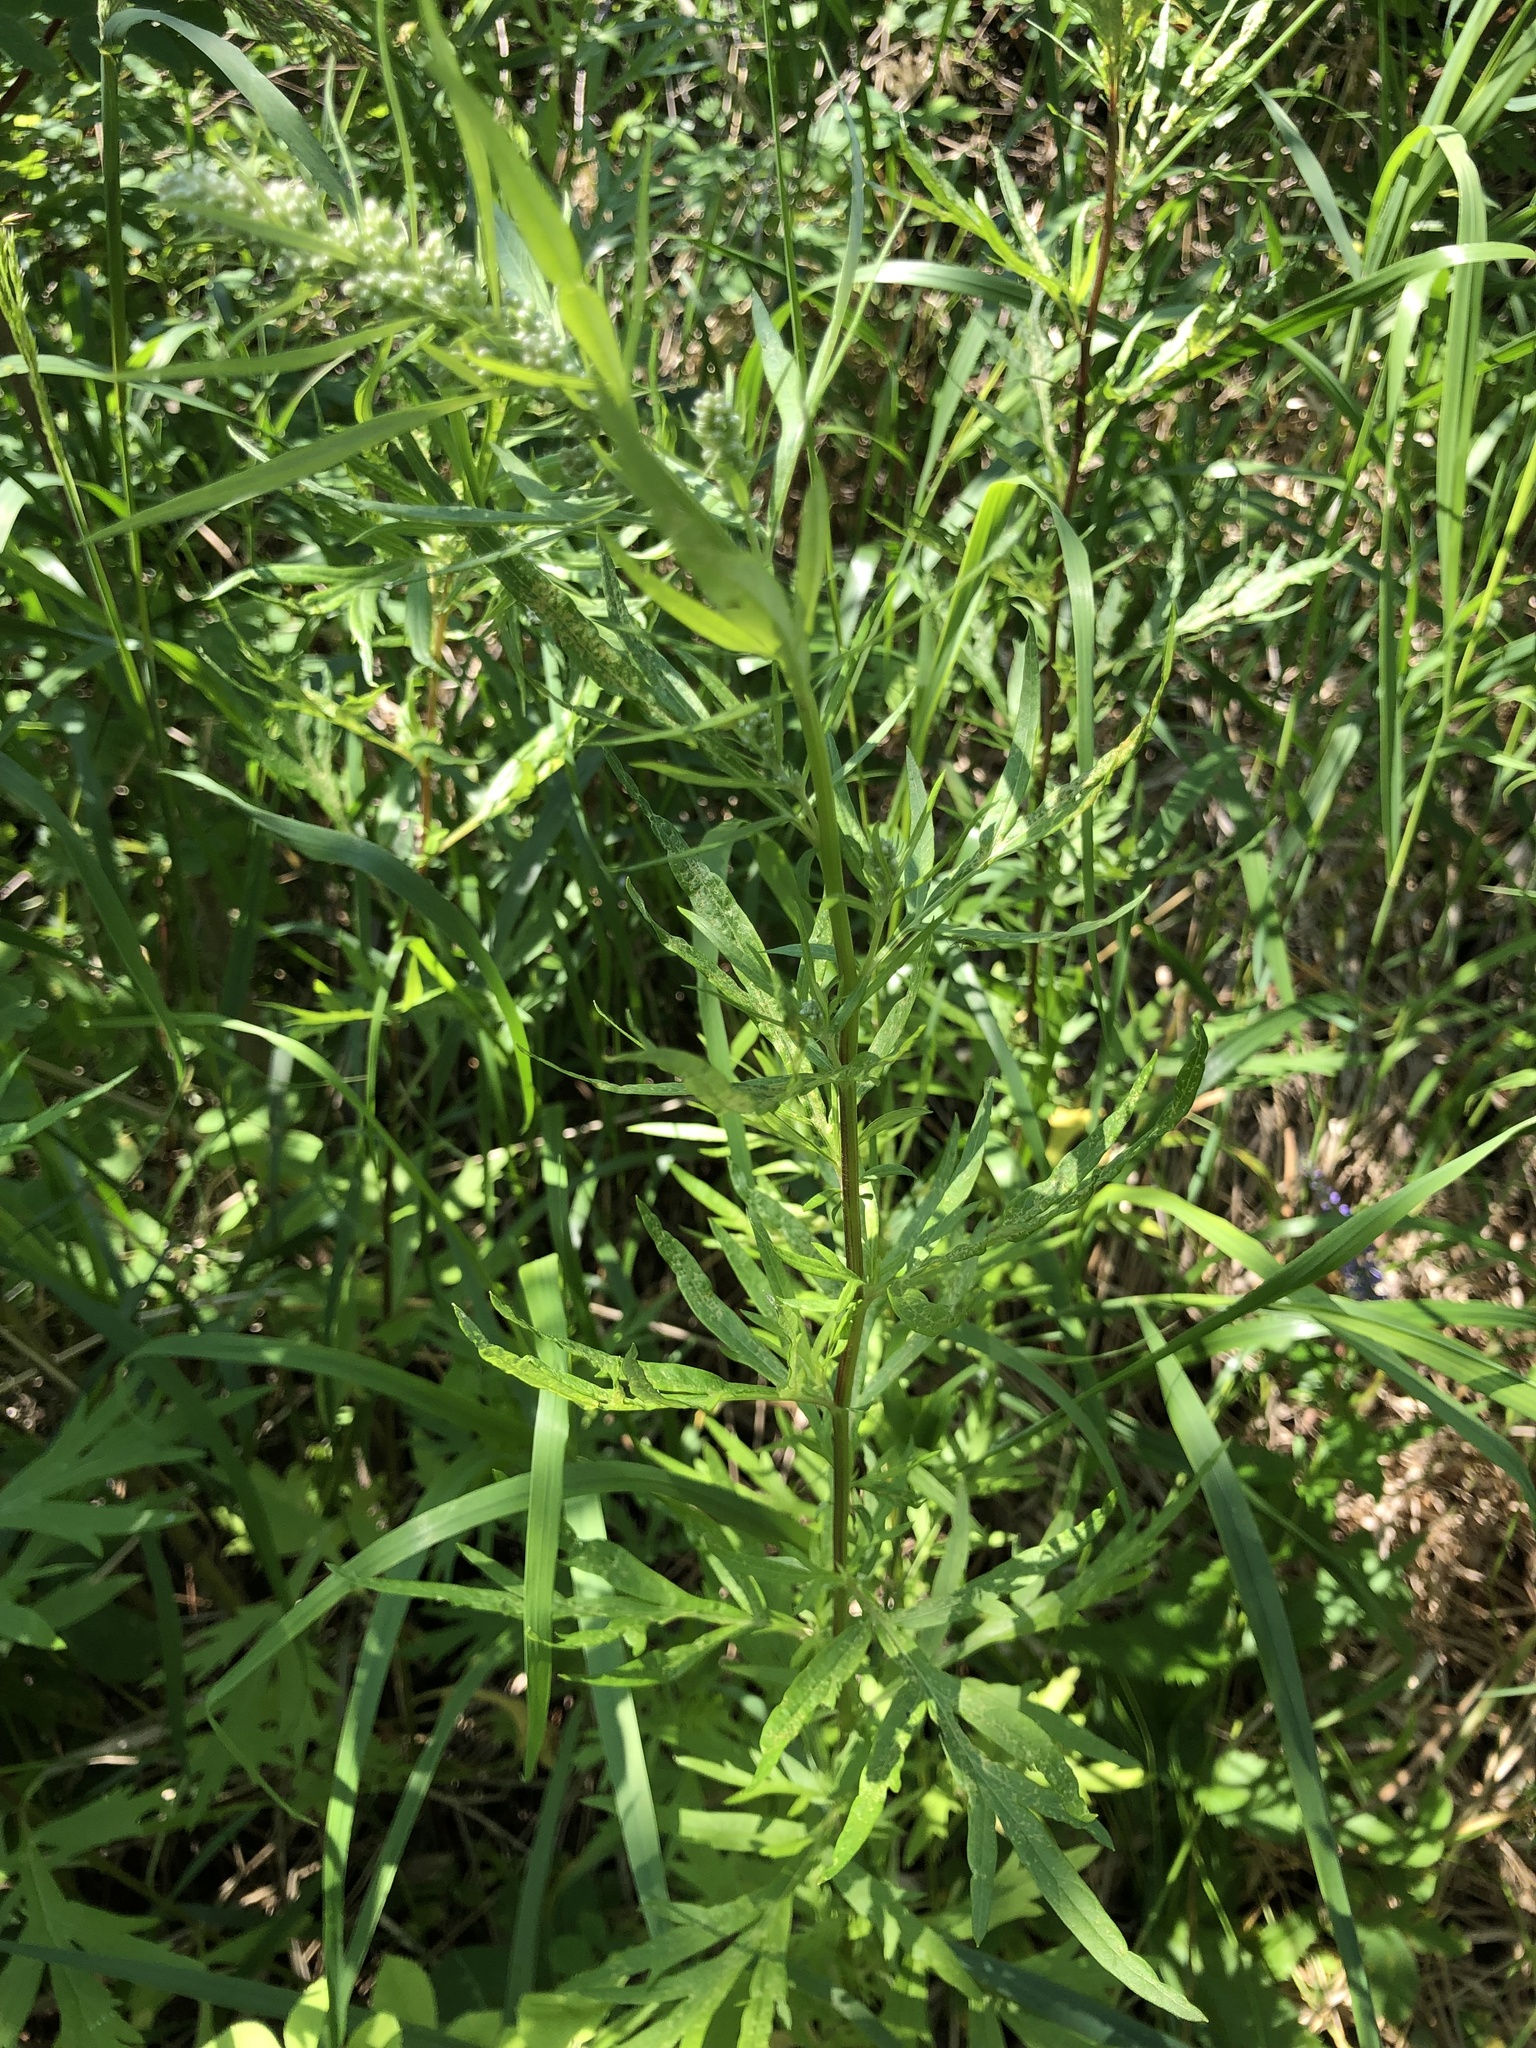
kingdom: Plantae
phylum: Tracheophyta
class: Magnoliopsida
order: Asterales
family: Asteraceae
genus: Artemisia
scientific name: Artemisia vulgaris
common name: Mugwort
